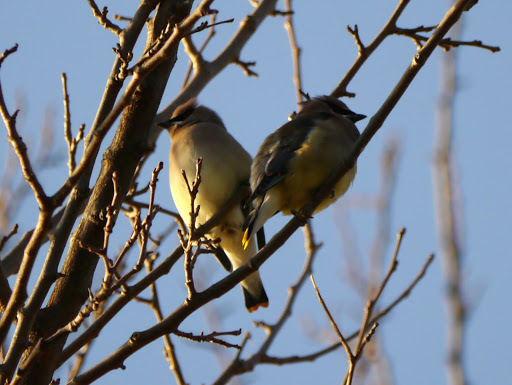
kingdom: Animalia
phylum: Chordata
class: Aves
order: Passeriformes
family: Bombycillidae
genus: Bombycilla
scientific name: Bombycilla cedrorum
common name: Cedar waxwing
